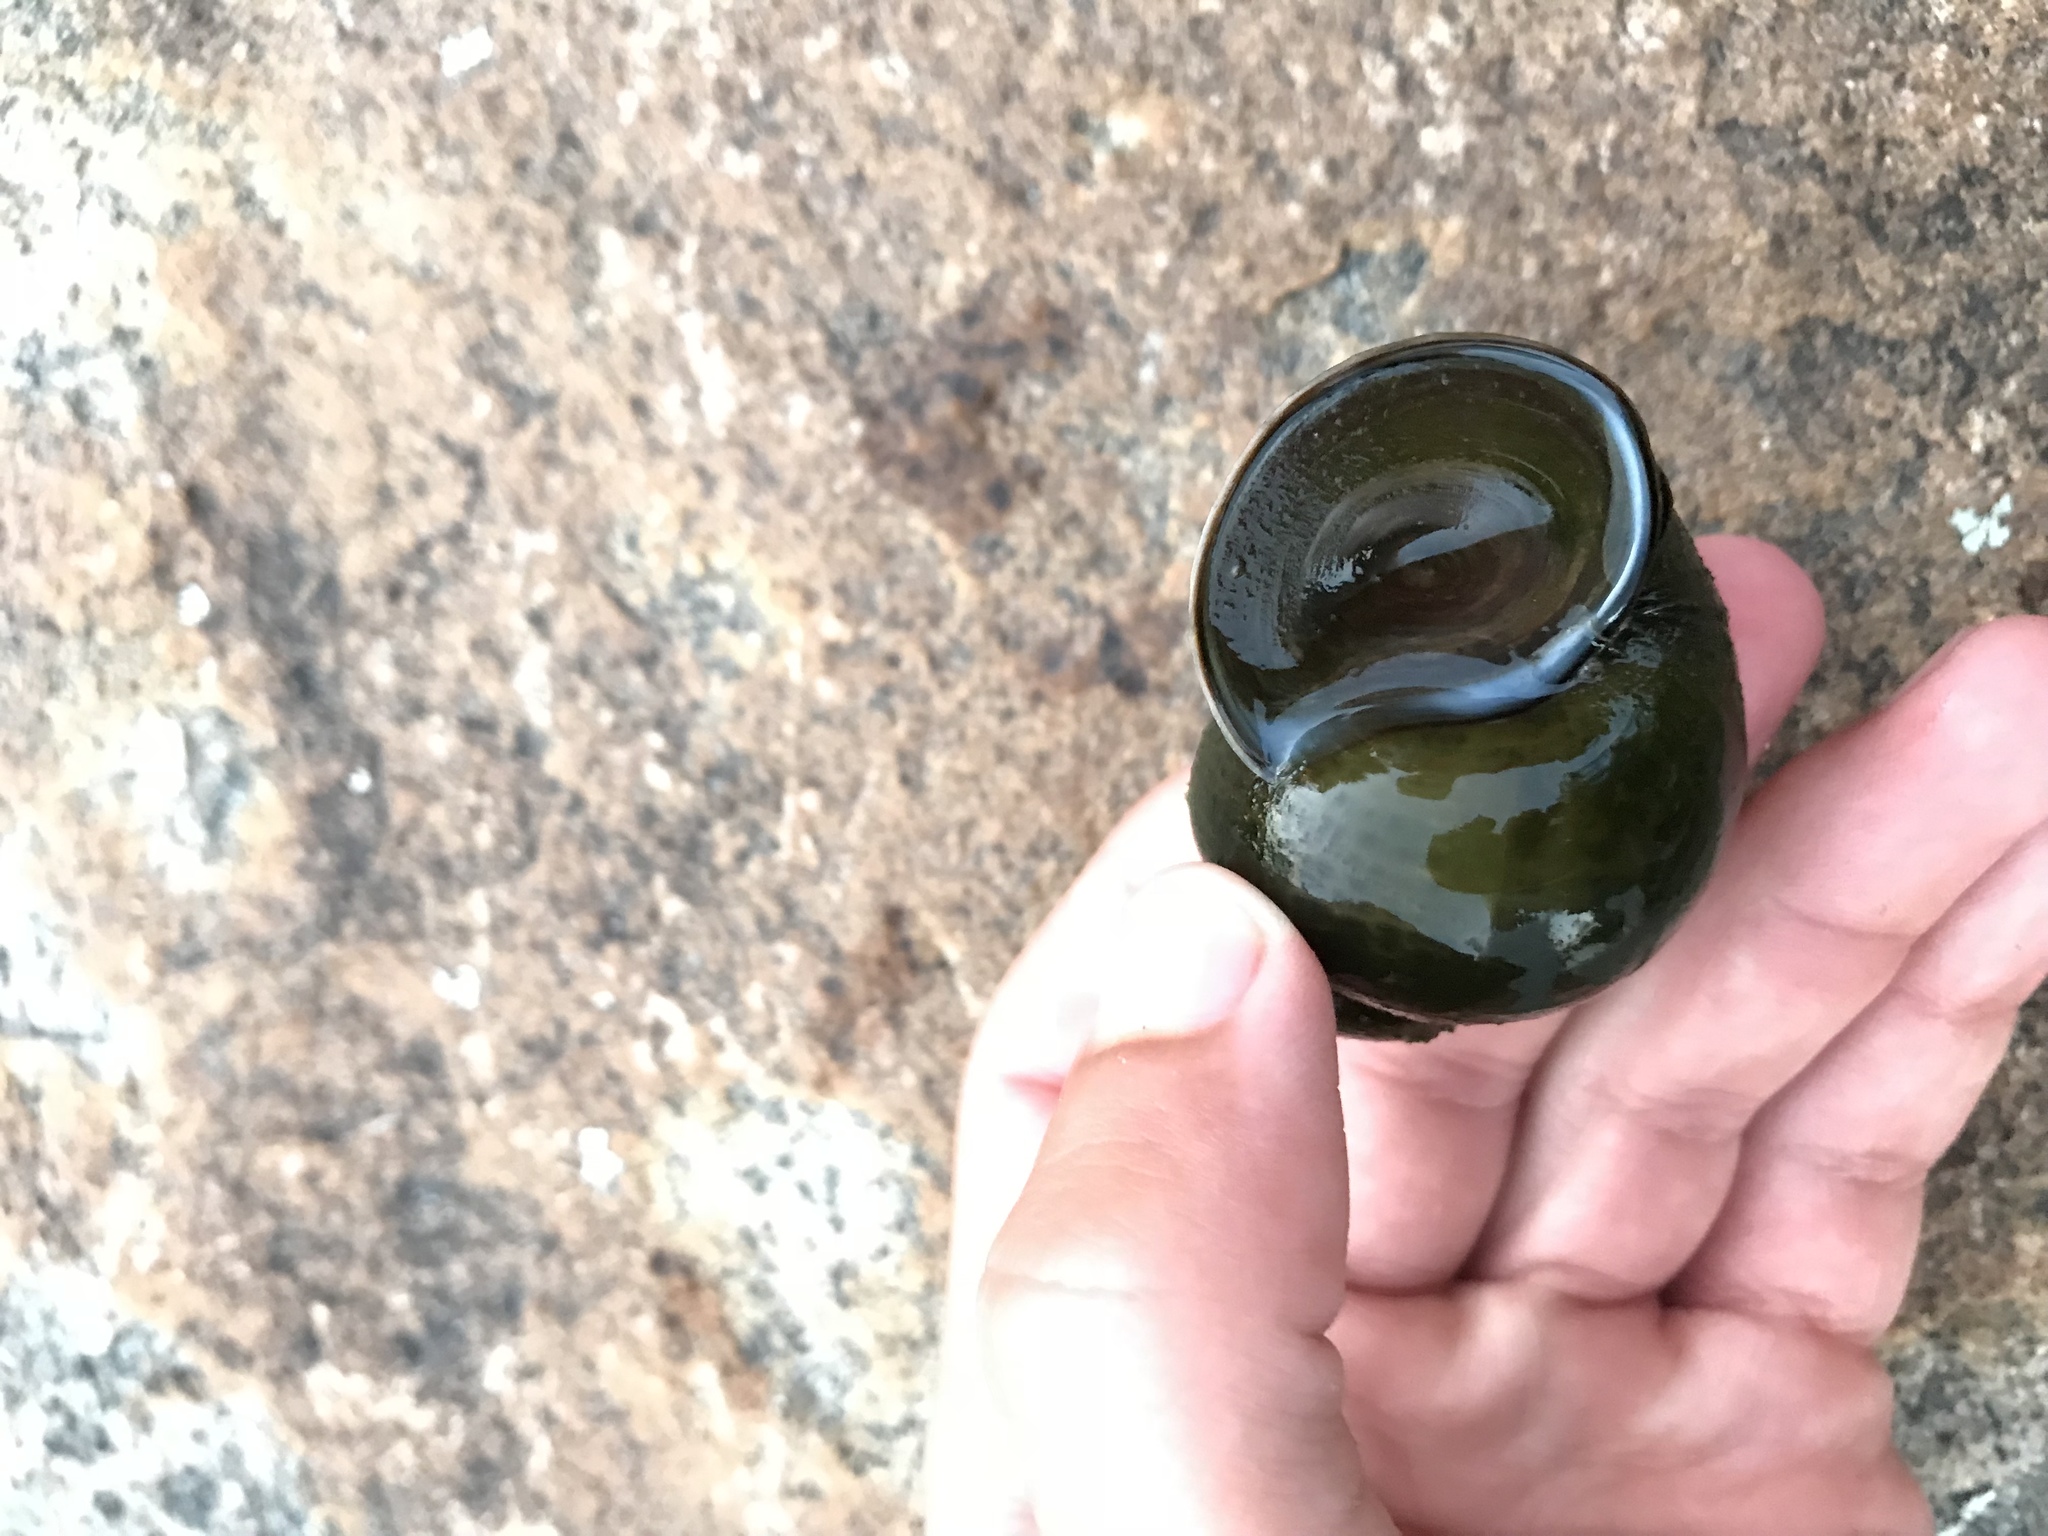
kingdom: Animalia
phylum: Mollusca
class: Gastropoda
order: Architaenioglossa
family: Viviparidae
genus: Cipangopaludina
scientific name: Cipangopaludina chinensis
